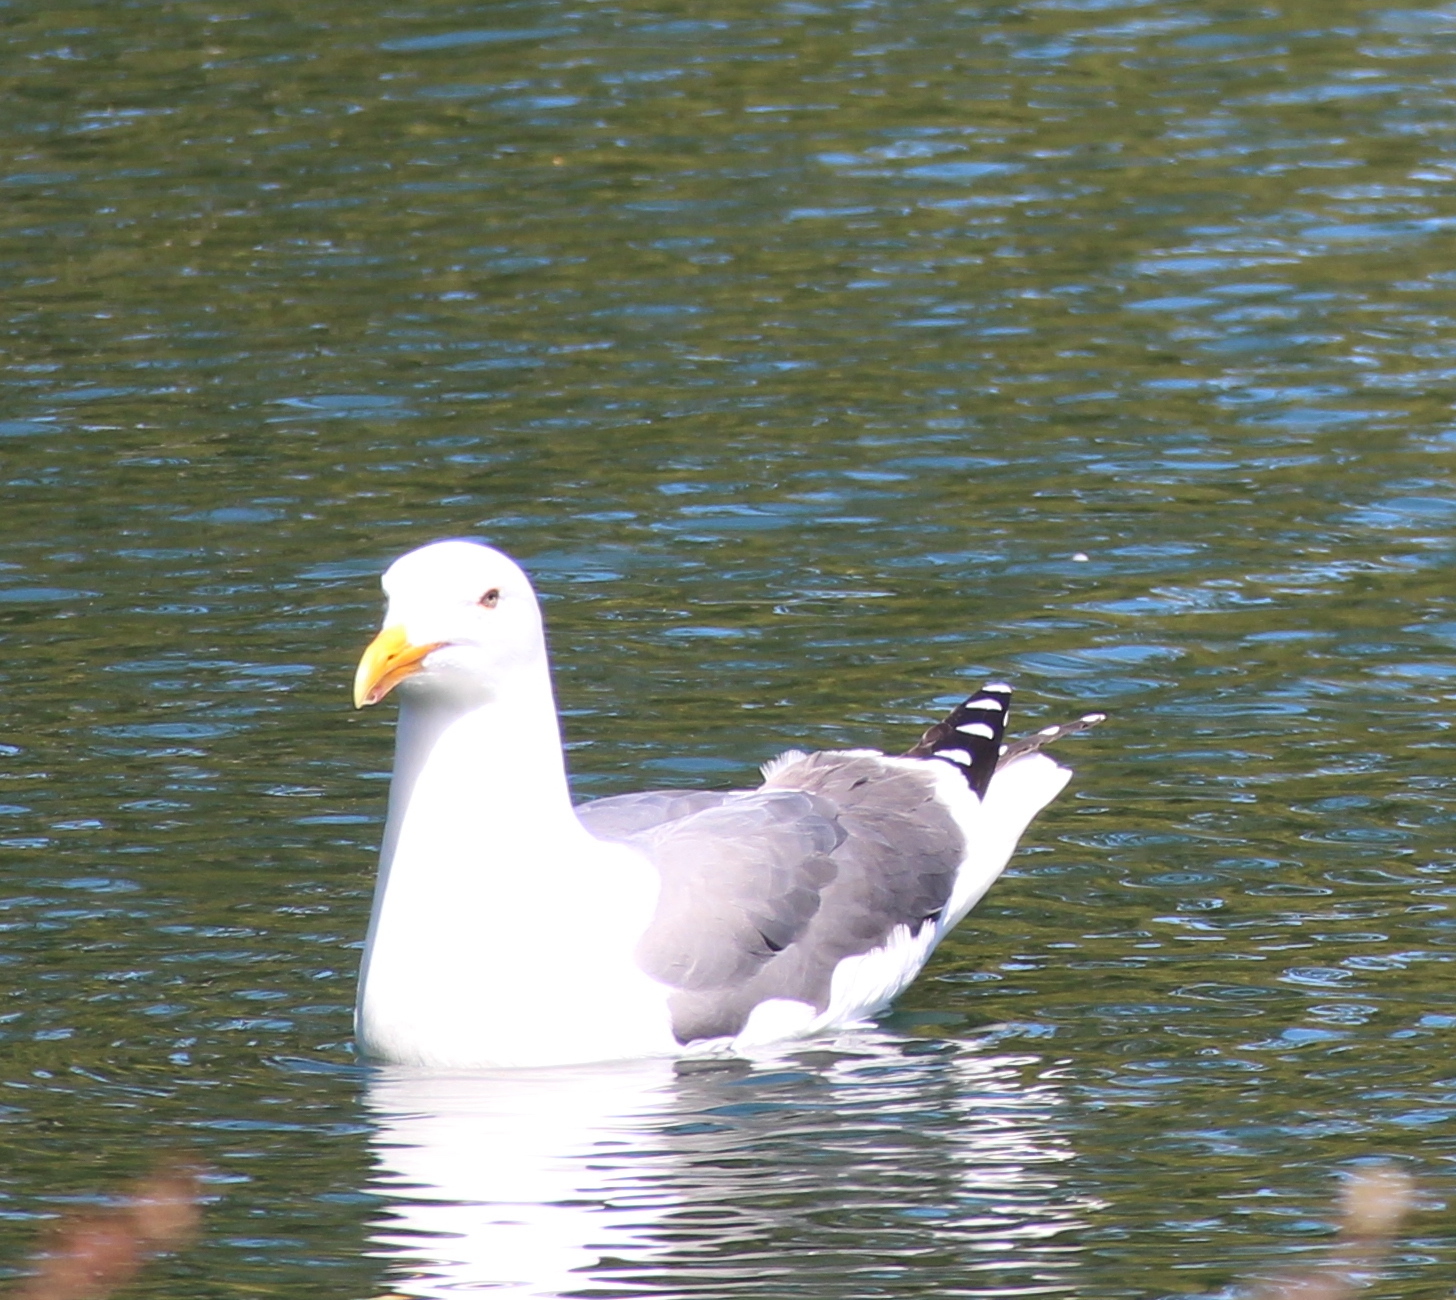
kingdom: Animalia
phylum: Chordata
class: Aves
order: Charadriiformes
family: Laridae
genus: Larus
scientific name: Larus occidentalis
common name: Western gull
